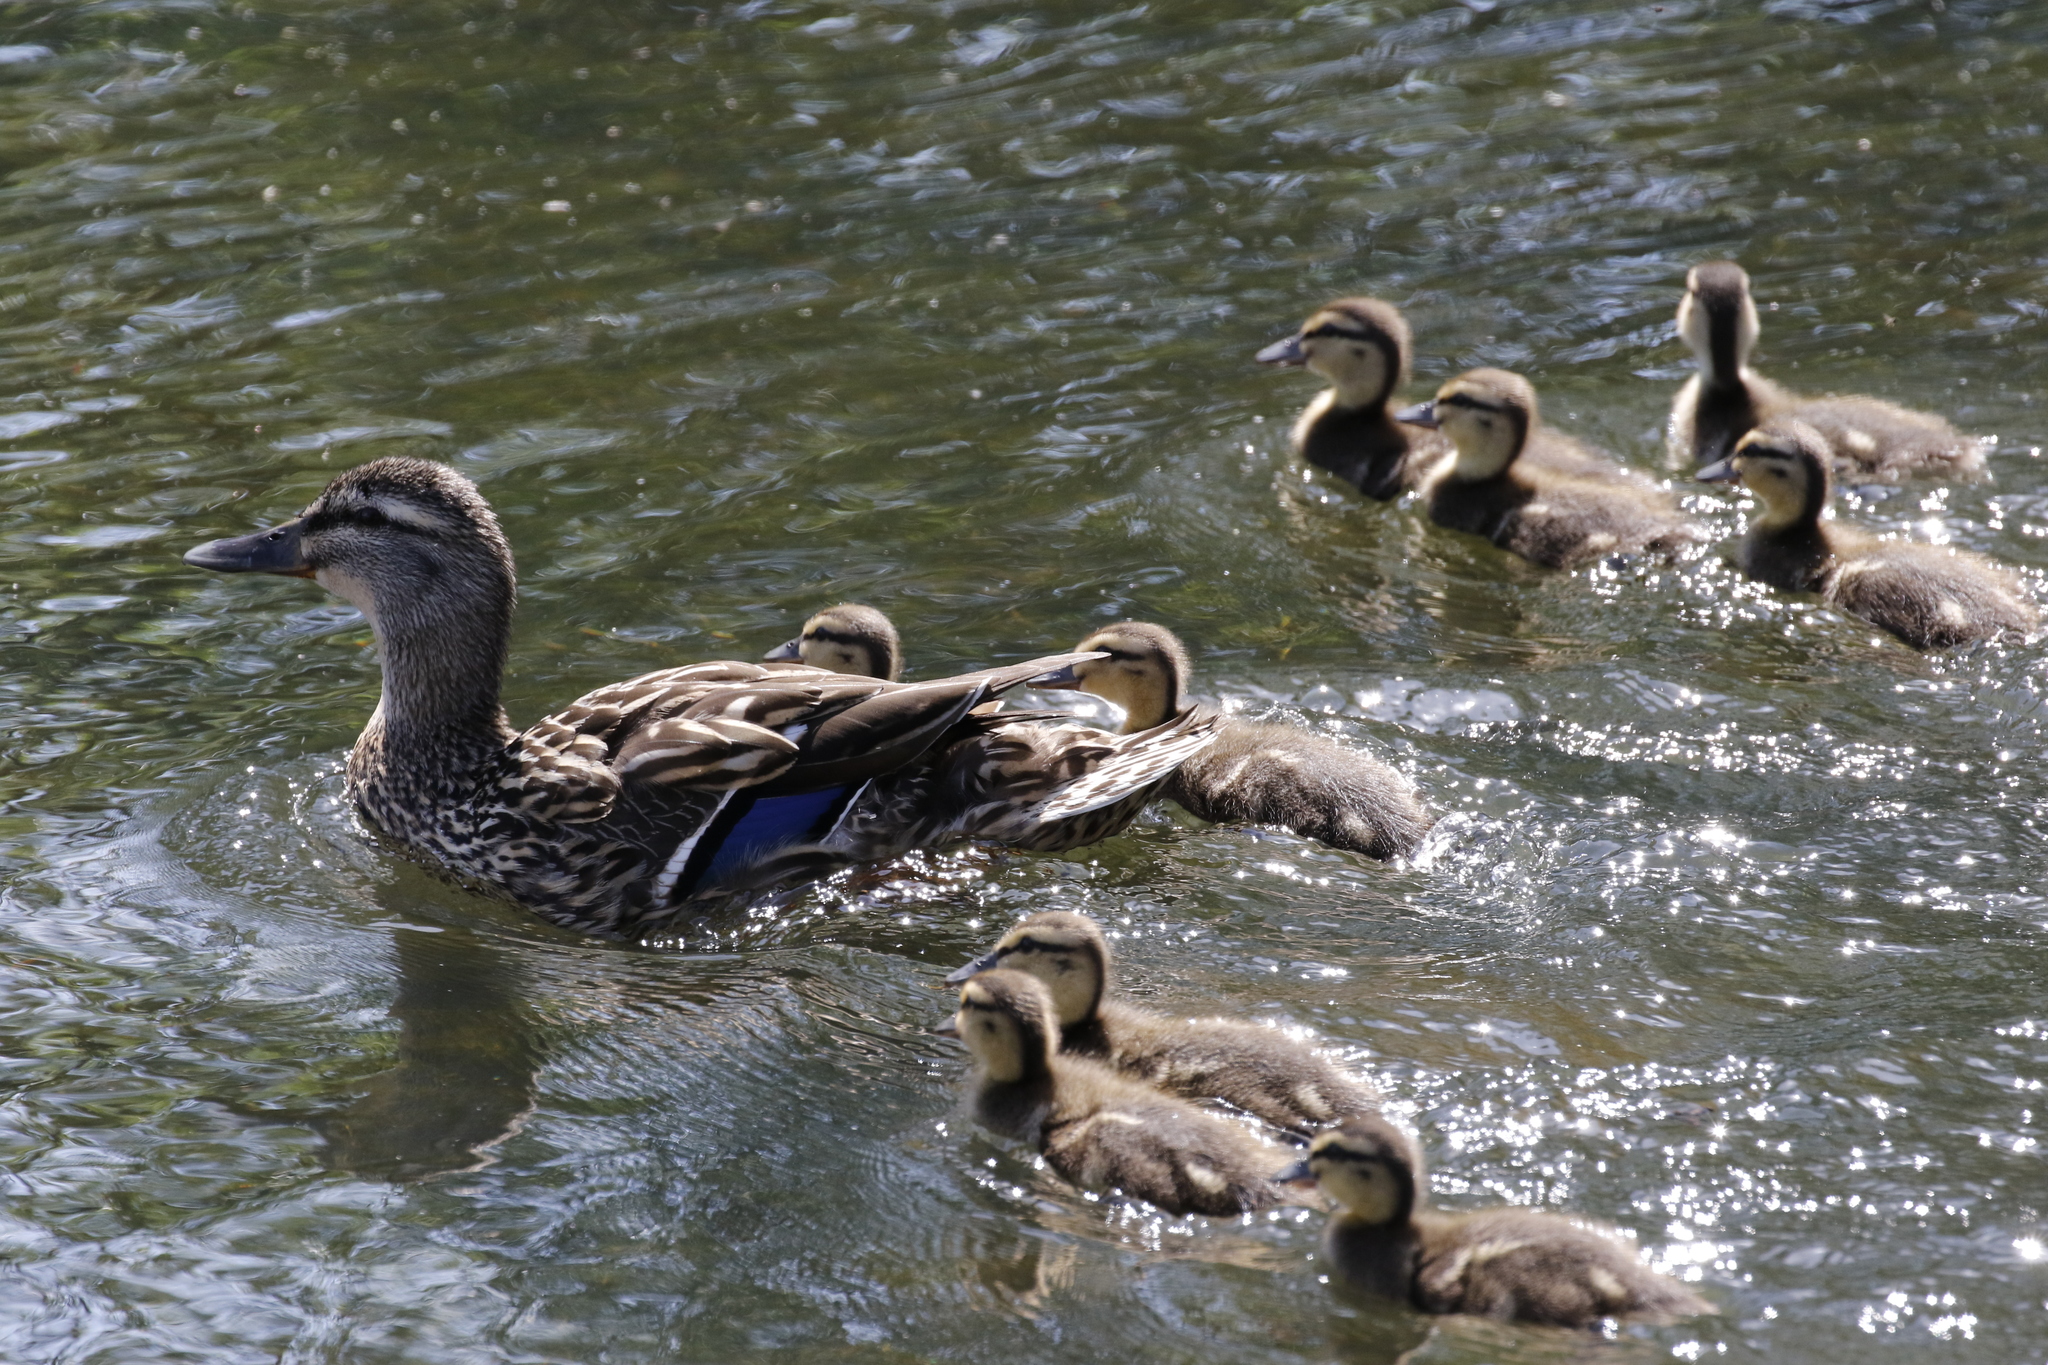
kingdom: Animalia
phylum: Chordata
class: Aves
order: Anseriformes
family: Anatidae
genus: Anas
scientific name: Anas platyrhynchos
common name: Mallard
